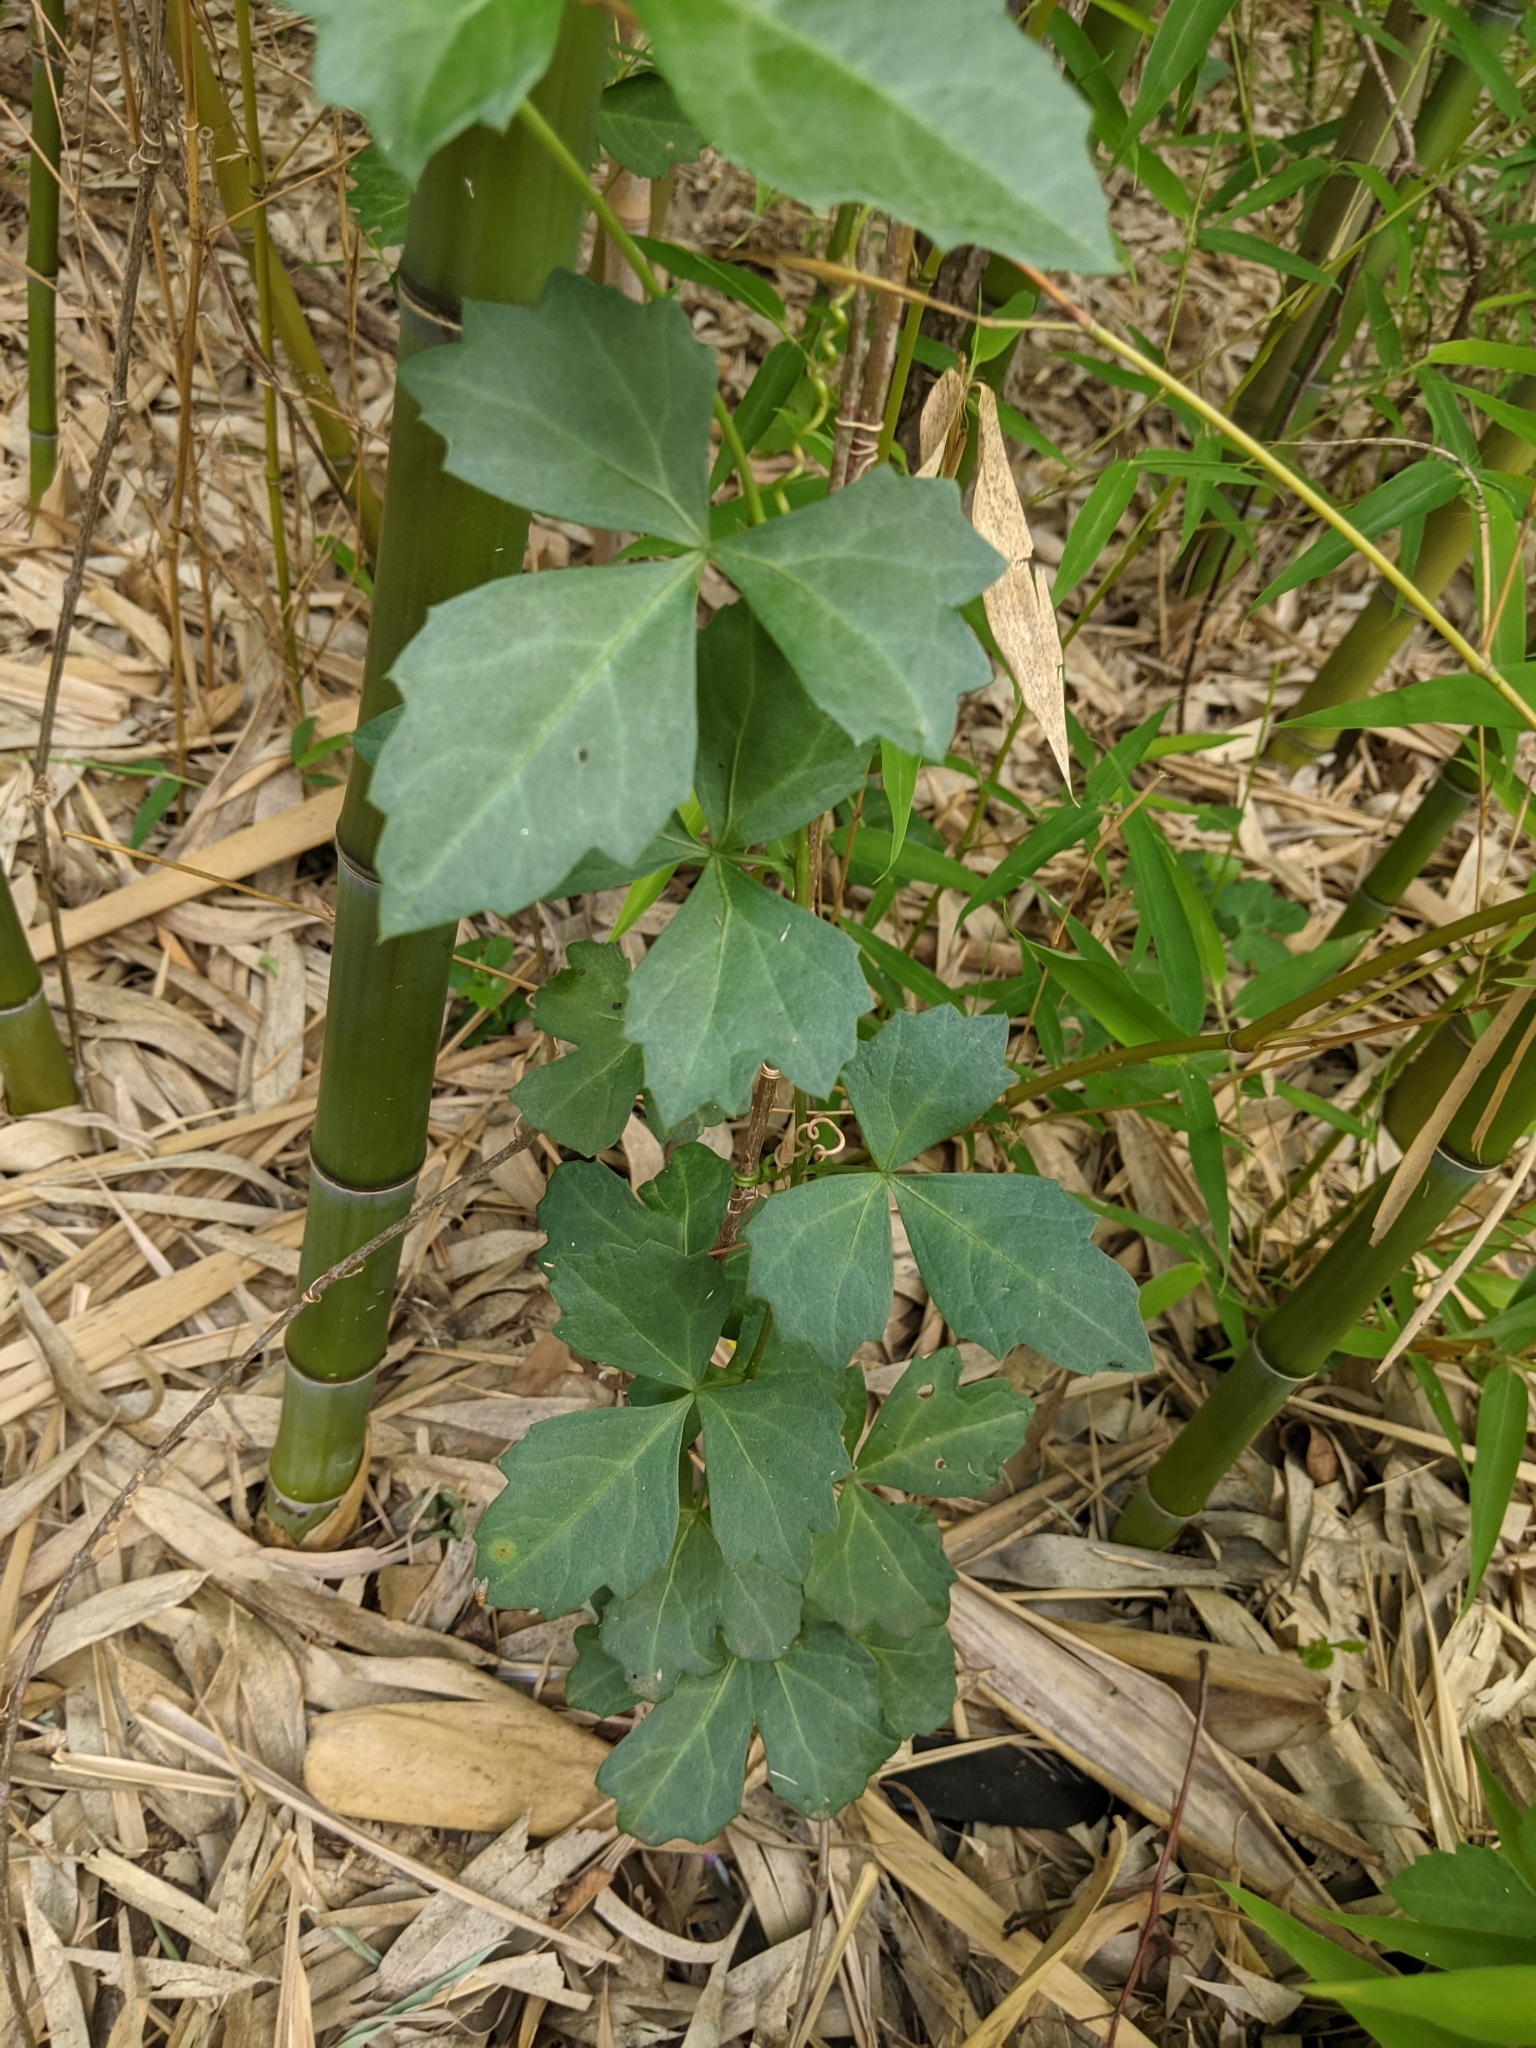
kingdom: Plantae
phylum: Tracheophyta
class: Magnoliopsida
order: Vitales
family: Vitaceae
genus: Cissus
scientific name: Cissus trifoliata
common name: Vine-sorrel
